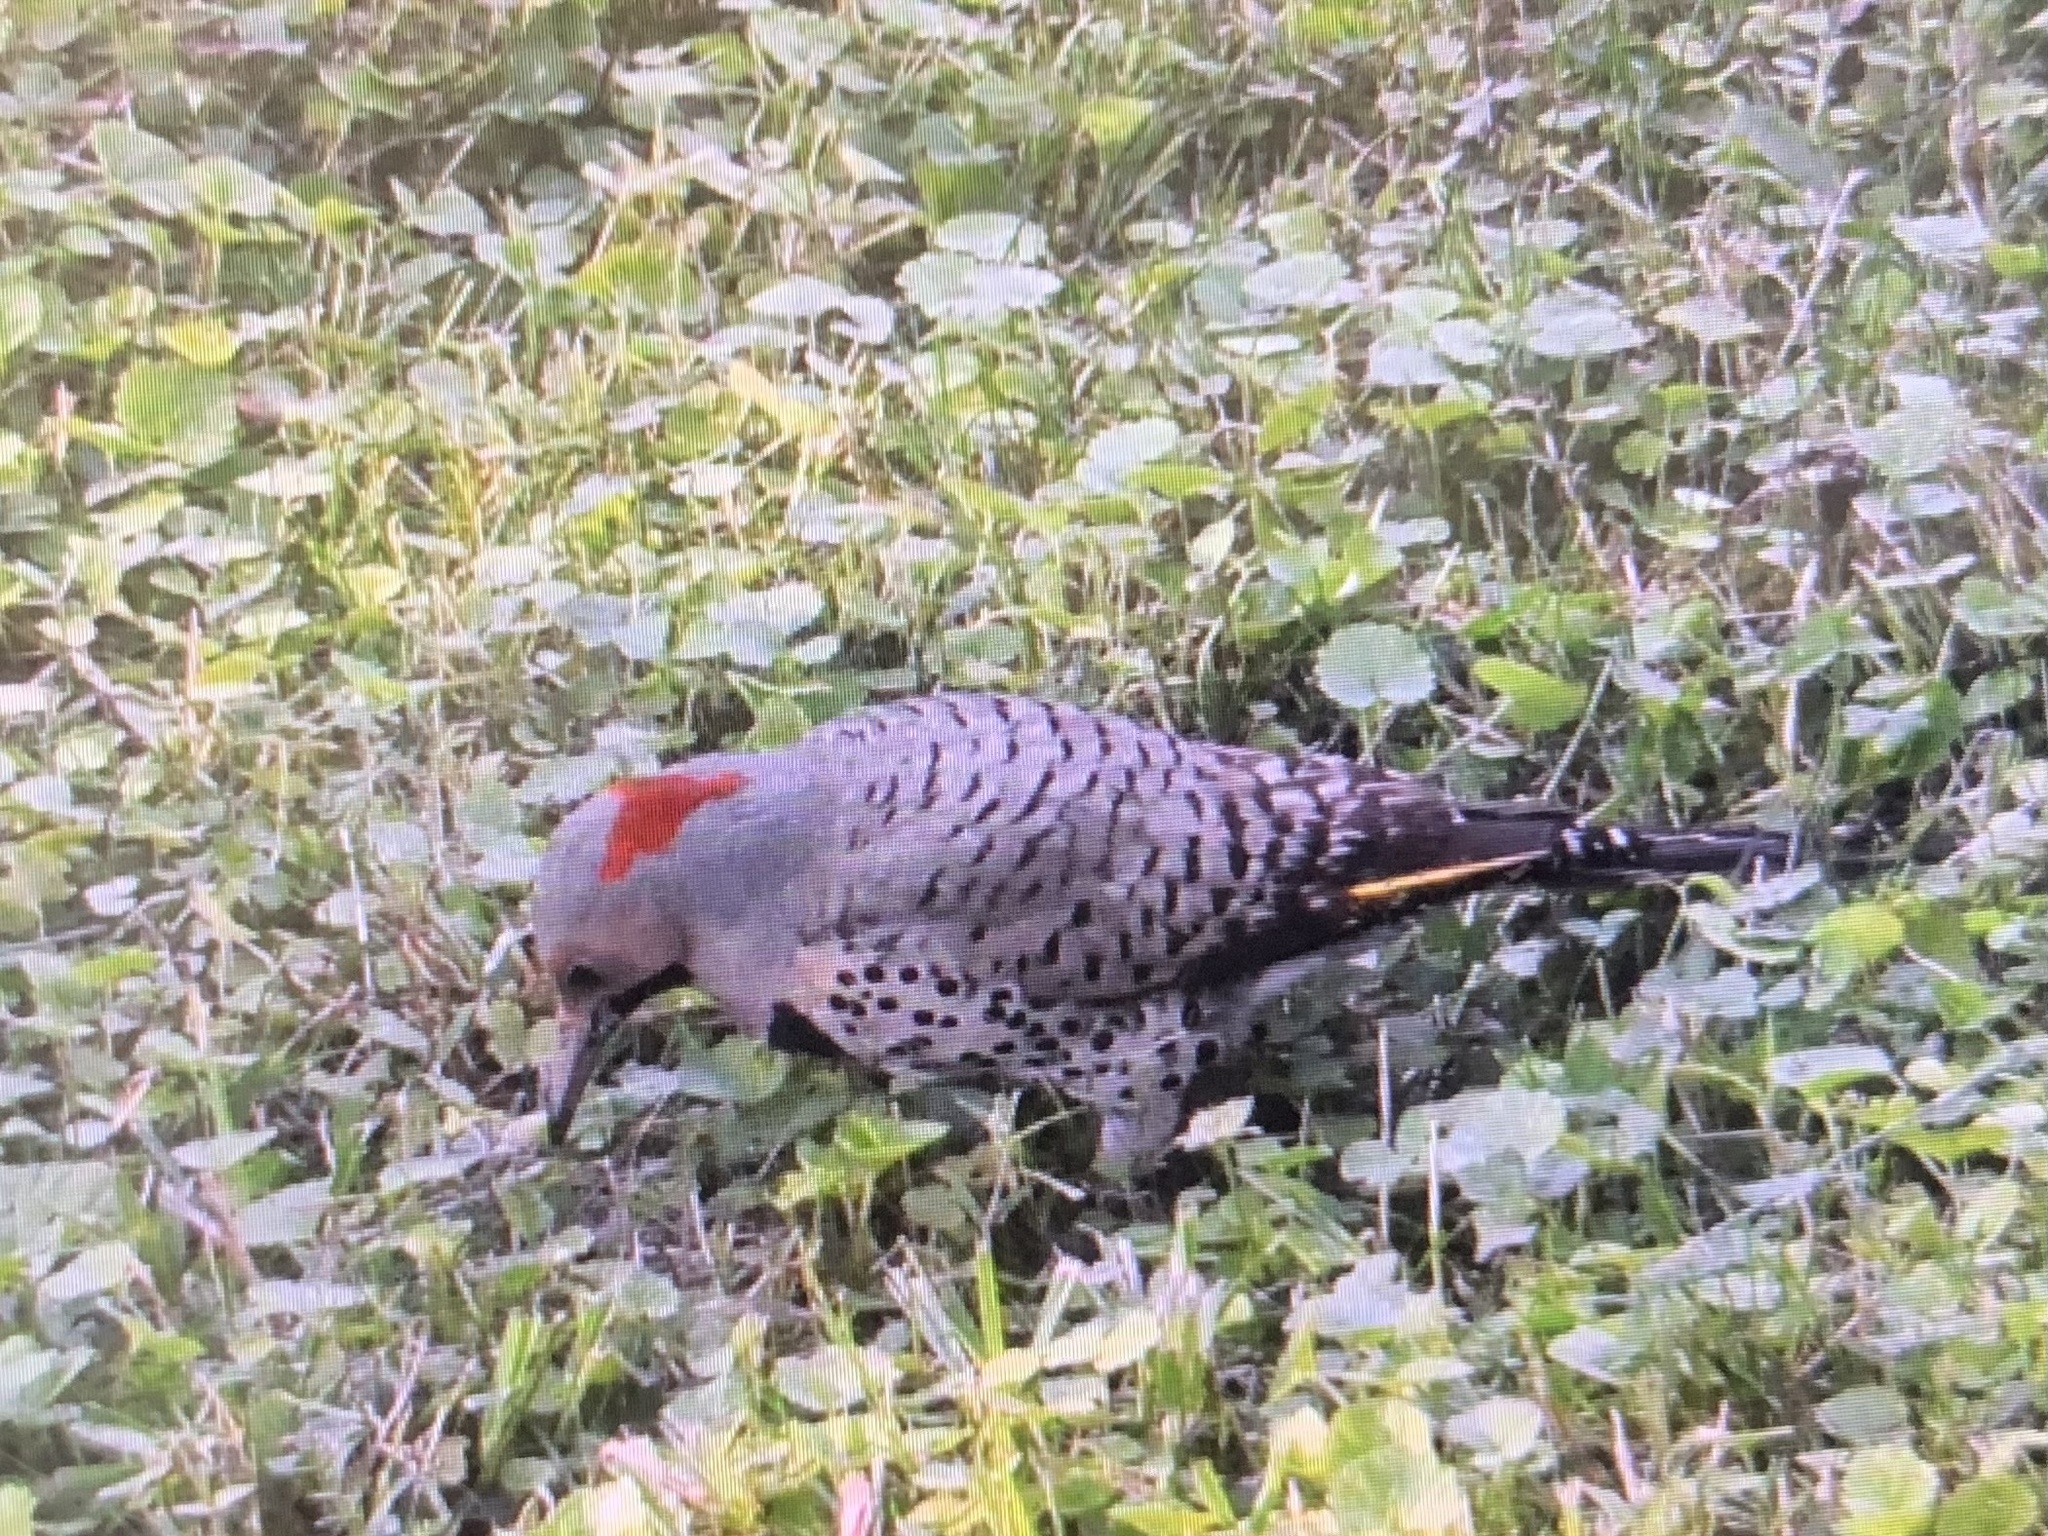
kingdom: Animalia
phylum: Chordata
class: Aves
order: Piciformes
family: Picidae
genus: Colaptes
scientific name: Colaptes auratus
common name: Northern flicker
